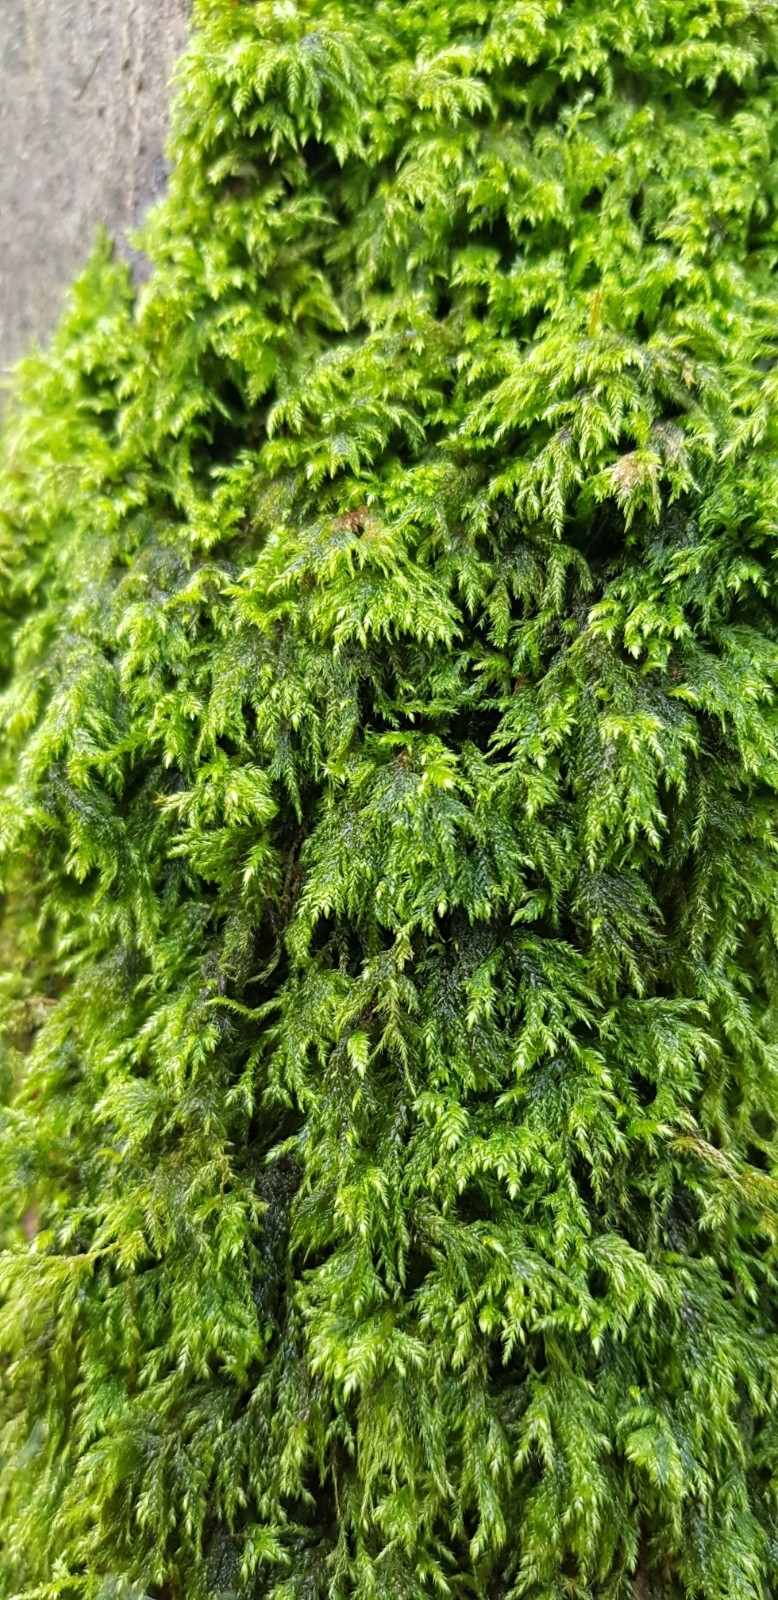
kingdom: Plantae
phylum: Bryophyta
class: Bryopsida
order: Hypnales
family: Lembophyllaceae
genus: Pseudisothecium
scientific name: Pseudisothecium myosuroides
